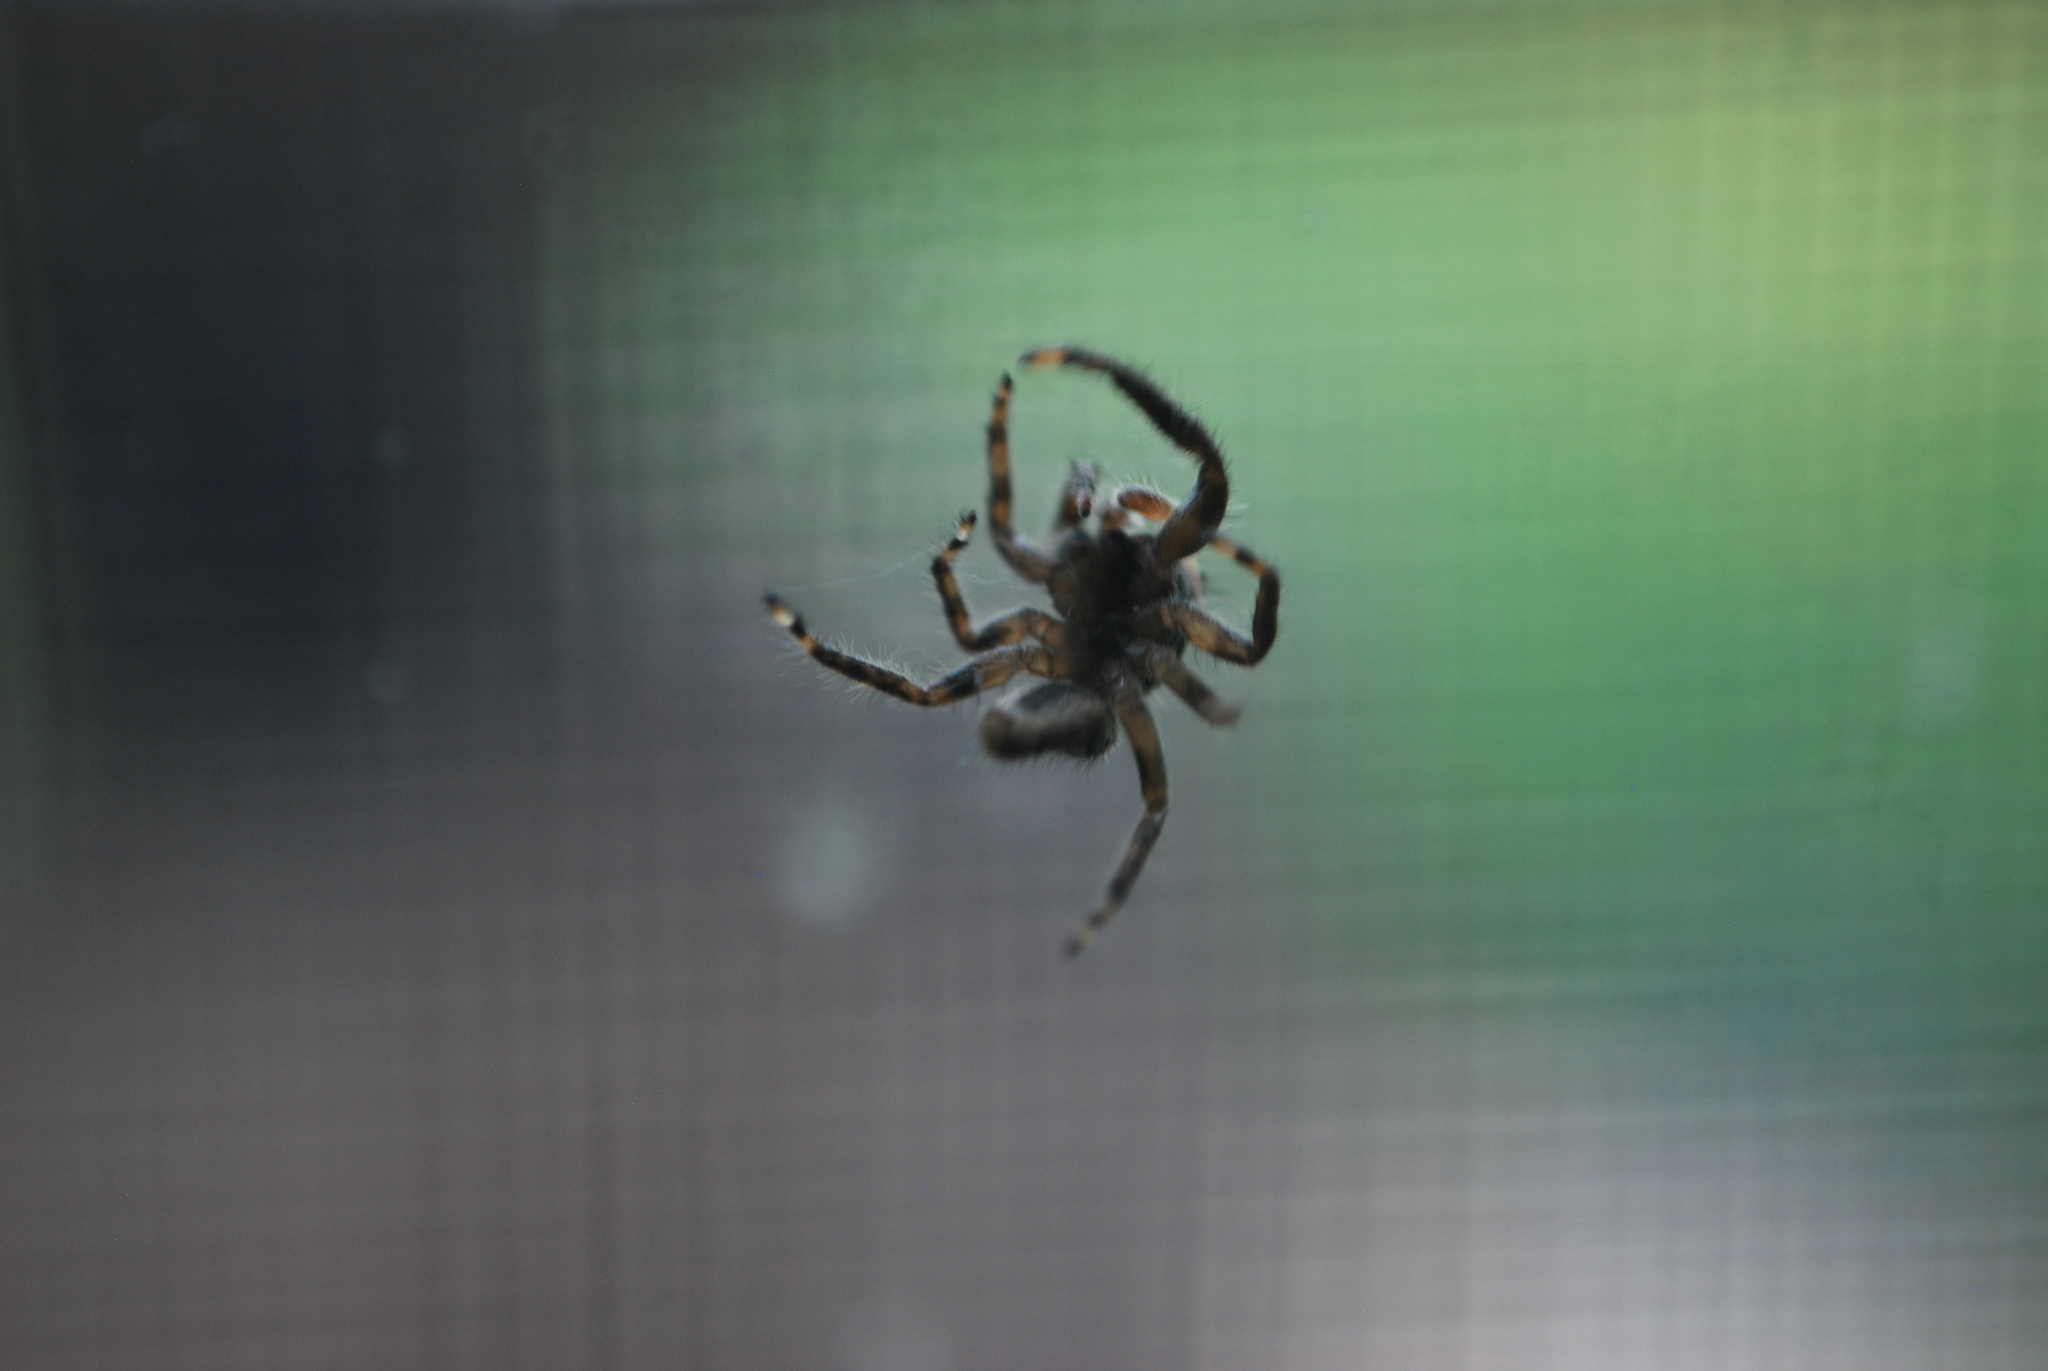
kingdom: Animalia
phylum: Arthropoda
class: Arachnida
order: Araneae
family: Salticidae
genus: Platycryptus
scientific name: Platycryptus undatus
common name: Tan jumping spider
